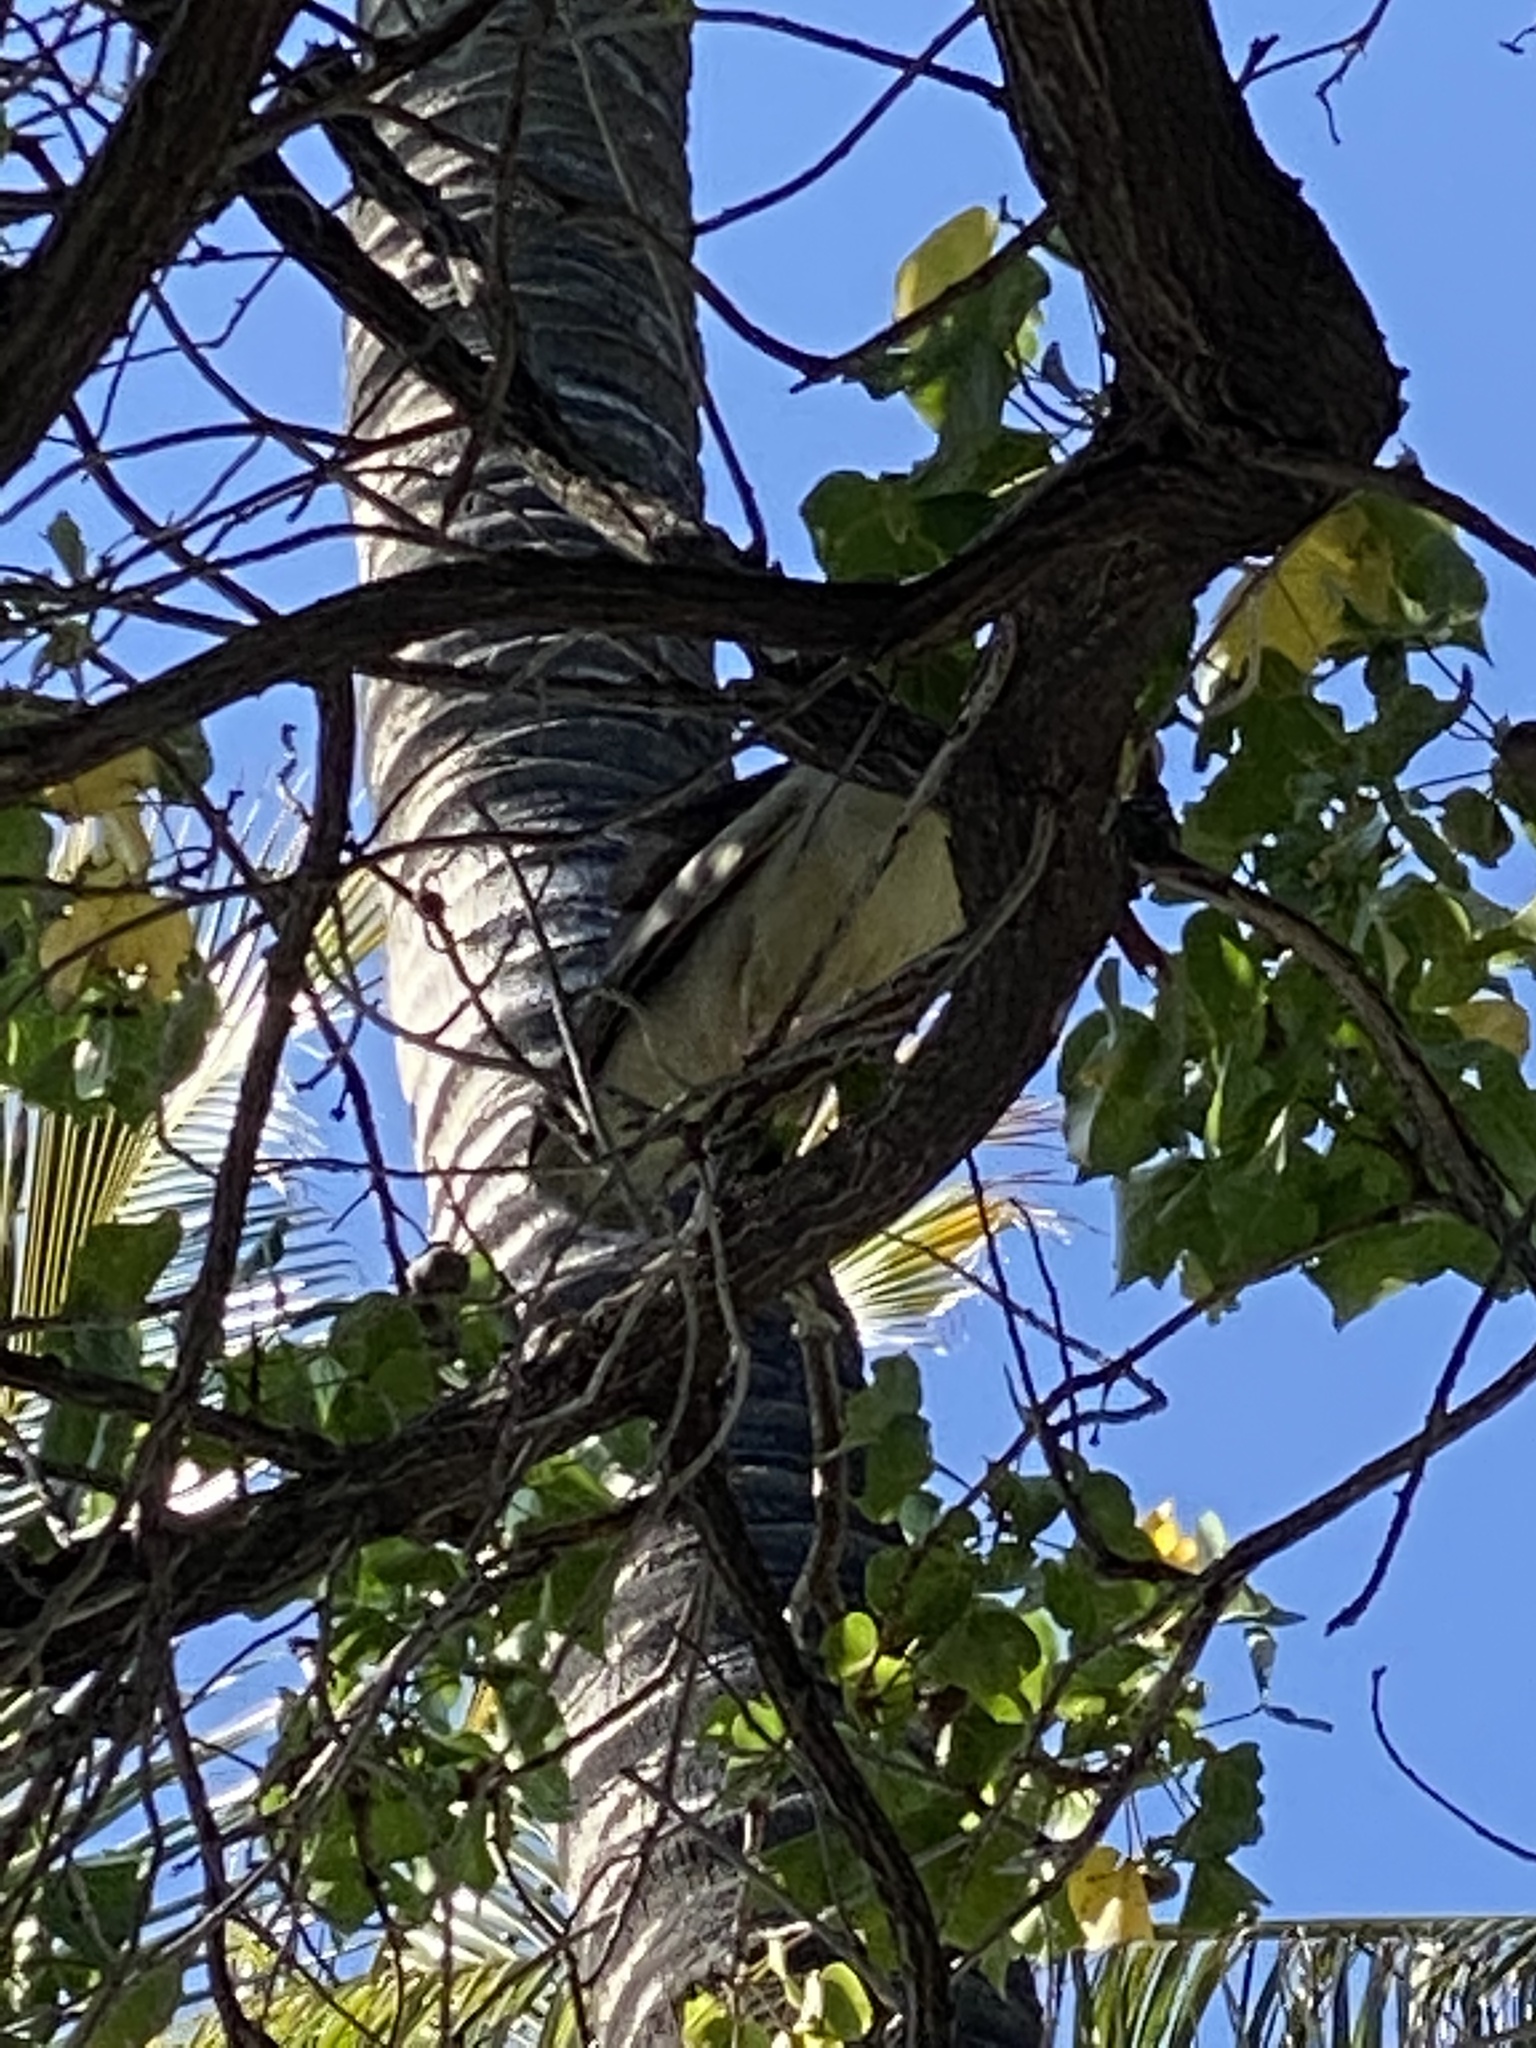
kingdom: Animalia
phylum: Chordata
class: Aves
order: Pelecaniformes
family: Ardeidae
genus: Nycticorax
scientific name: Nycticorax nycticorax
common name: Black-crowned night heron
